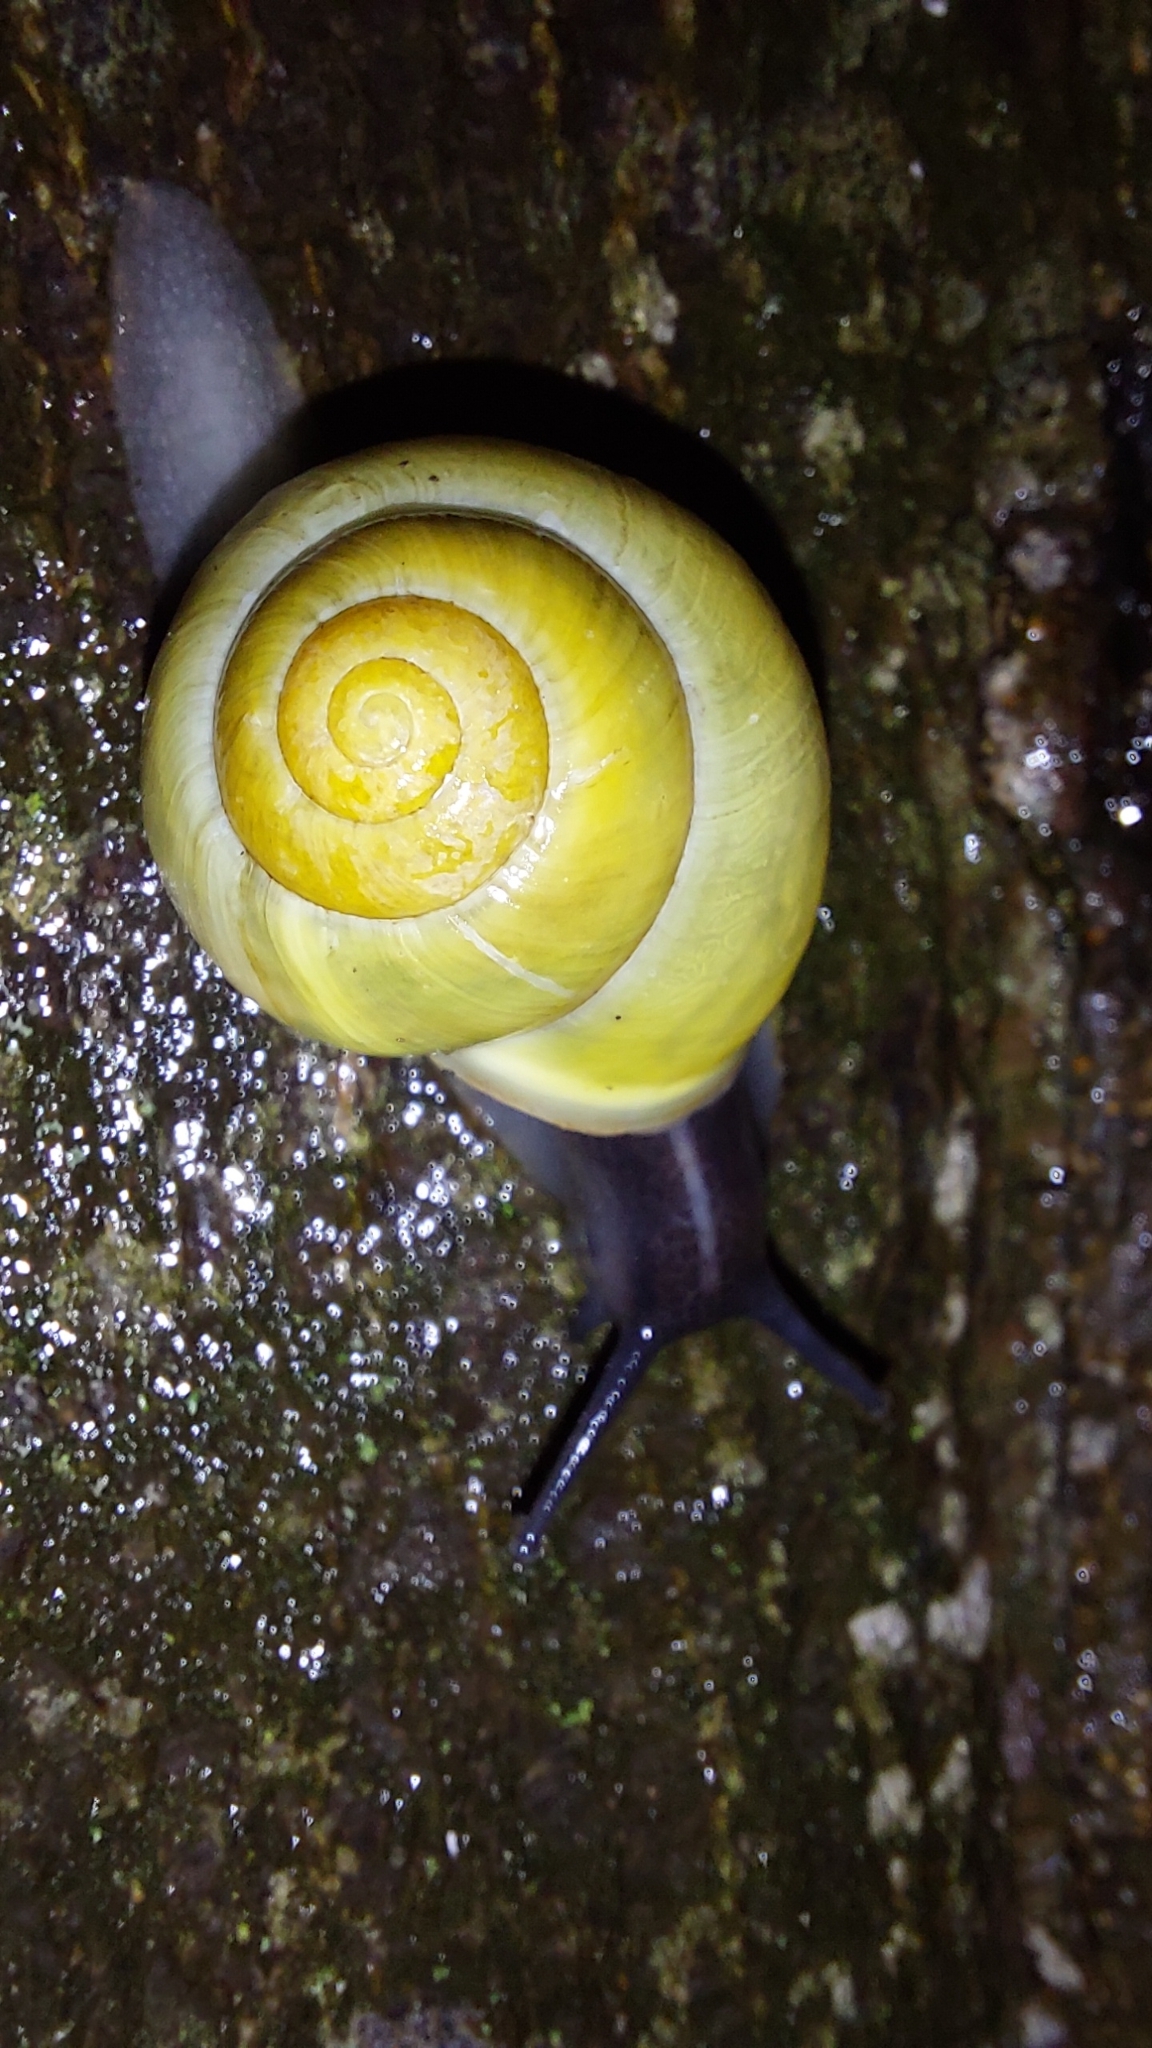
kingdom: Animalia
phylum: Mollusca
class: Gastropoda
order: Stylommatophora
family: Helicidae
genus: Cepaea
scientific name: Cepaea hortensis
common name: White-lip gardensnail
